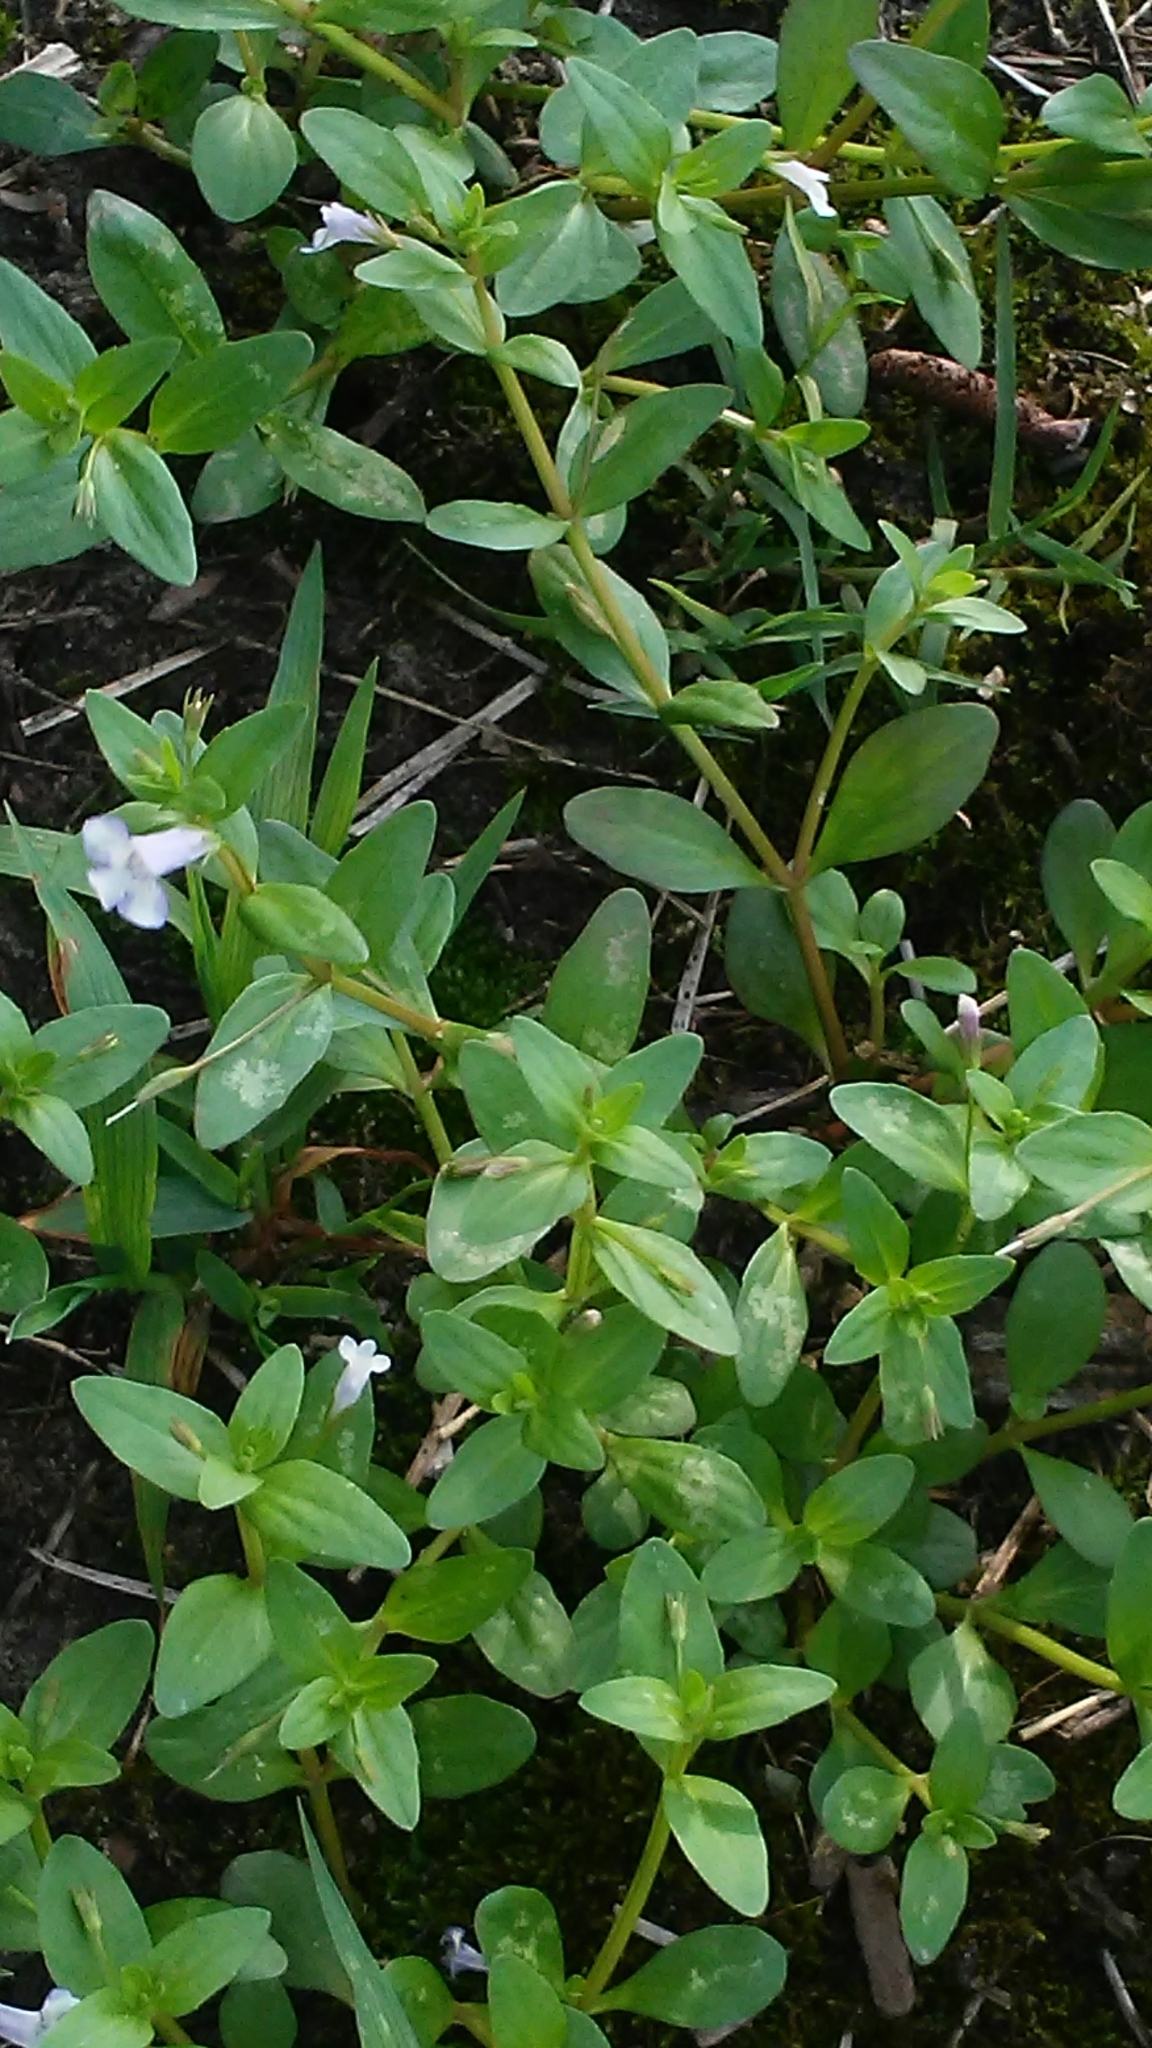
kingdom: Plantae
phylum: Tracheophyta
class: Magnoliopsida
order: Lamiales
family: Linderniaceae
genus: Lindernia
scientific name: Lindernia dubia
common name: Annual false pimpernel
